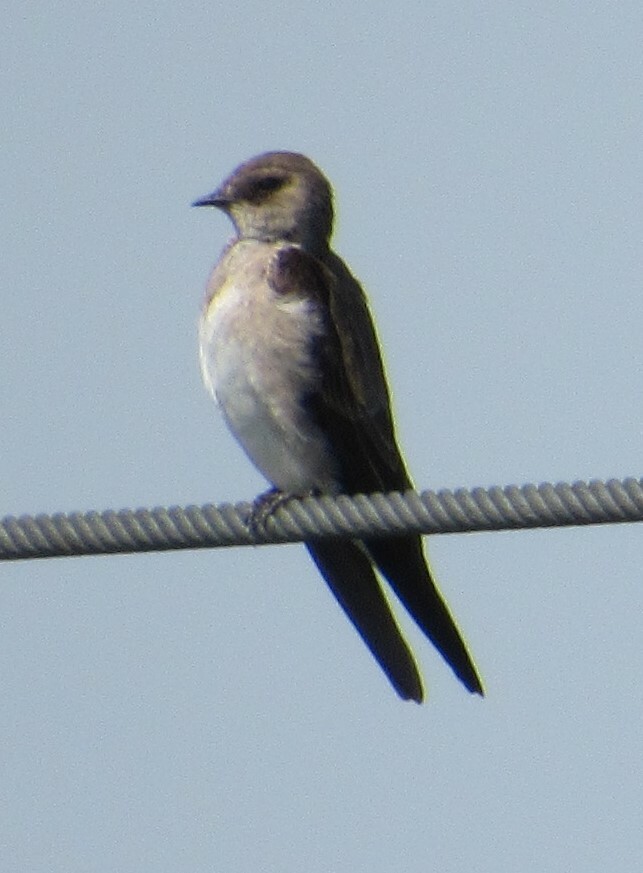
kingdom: Animalia
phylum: Chordata
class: Aves
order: Passeriformes
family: Hirundinidae
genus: Stelgidopteryx
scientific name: Stelgidopteryx serripennis
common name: Northern rough-winged swallow
